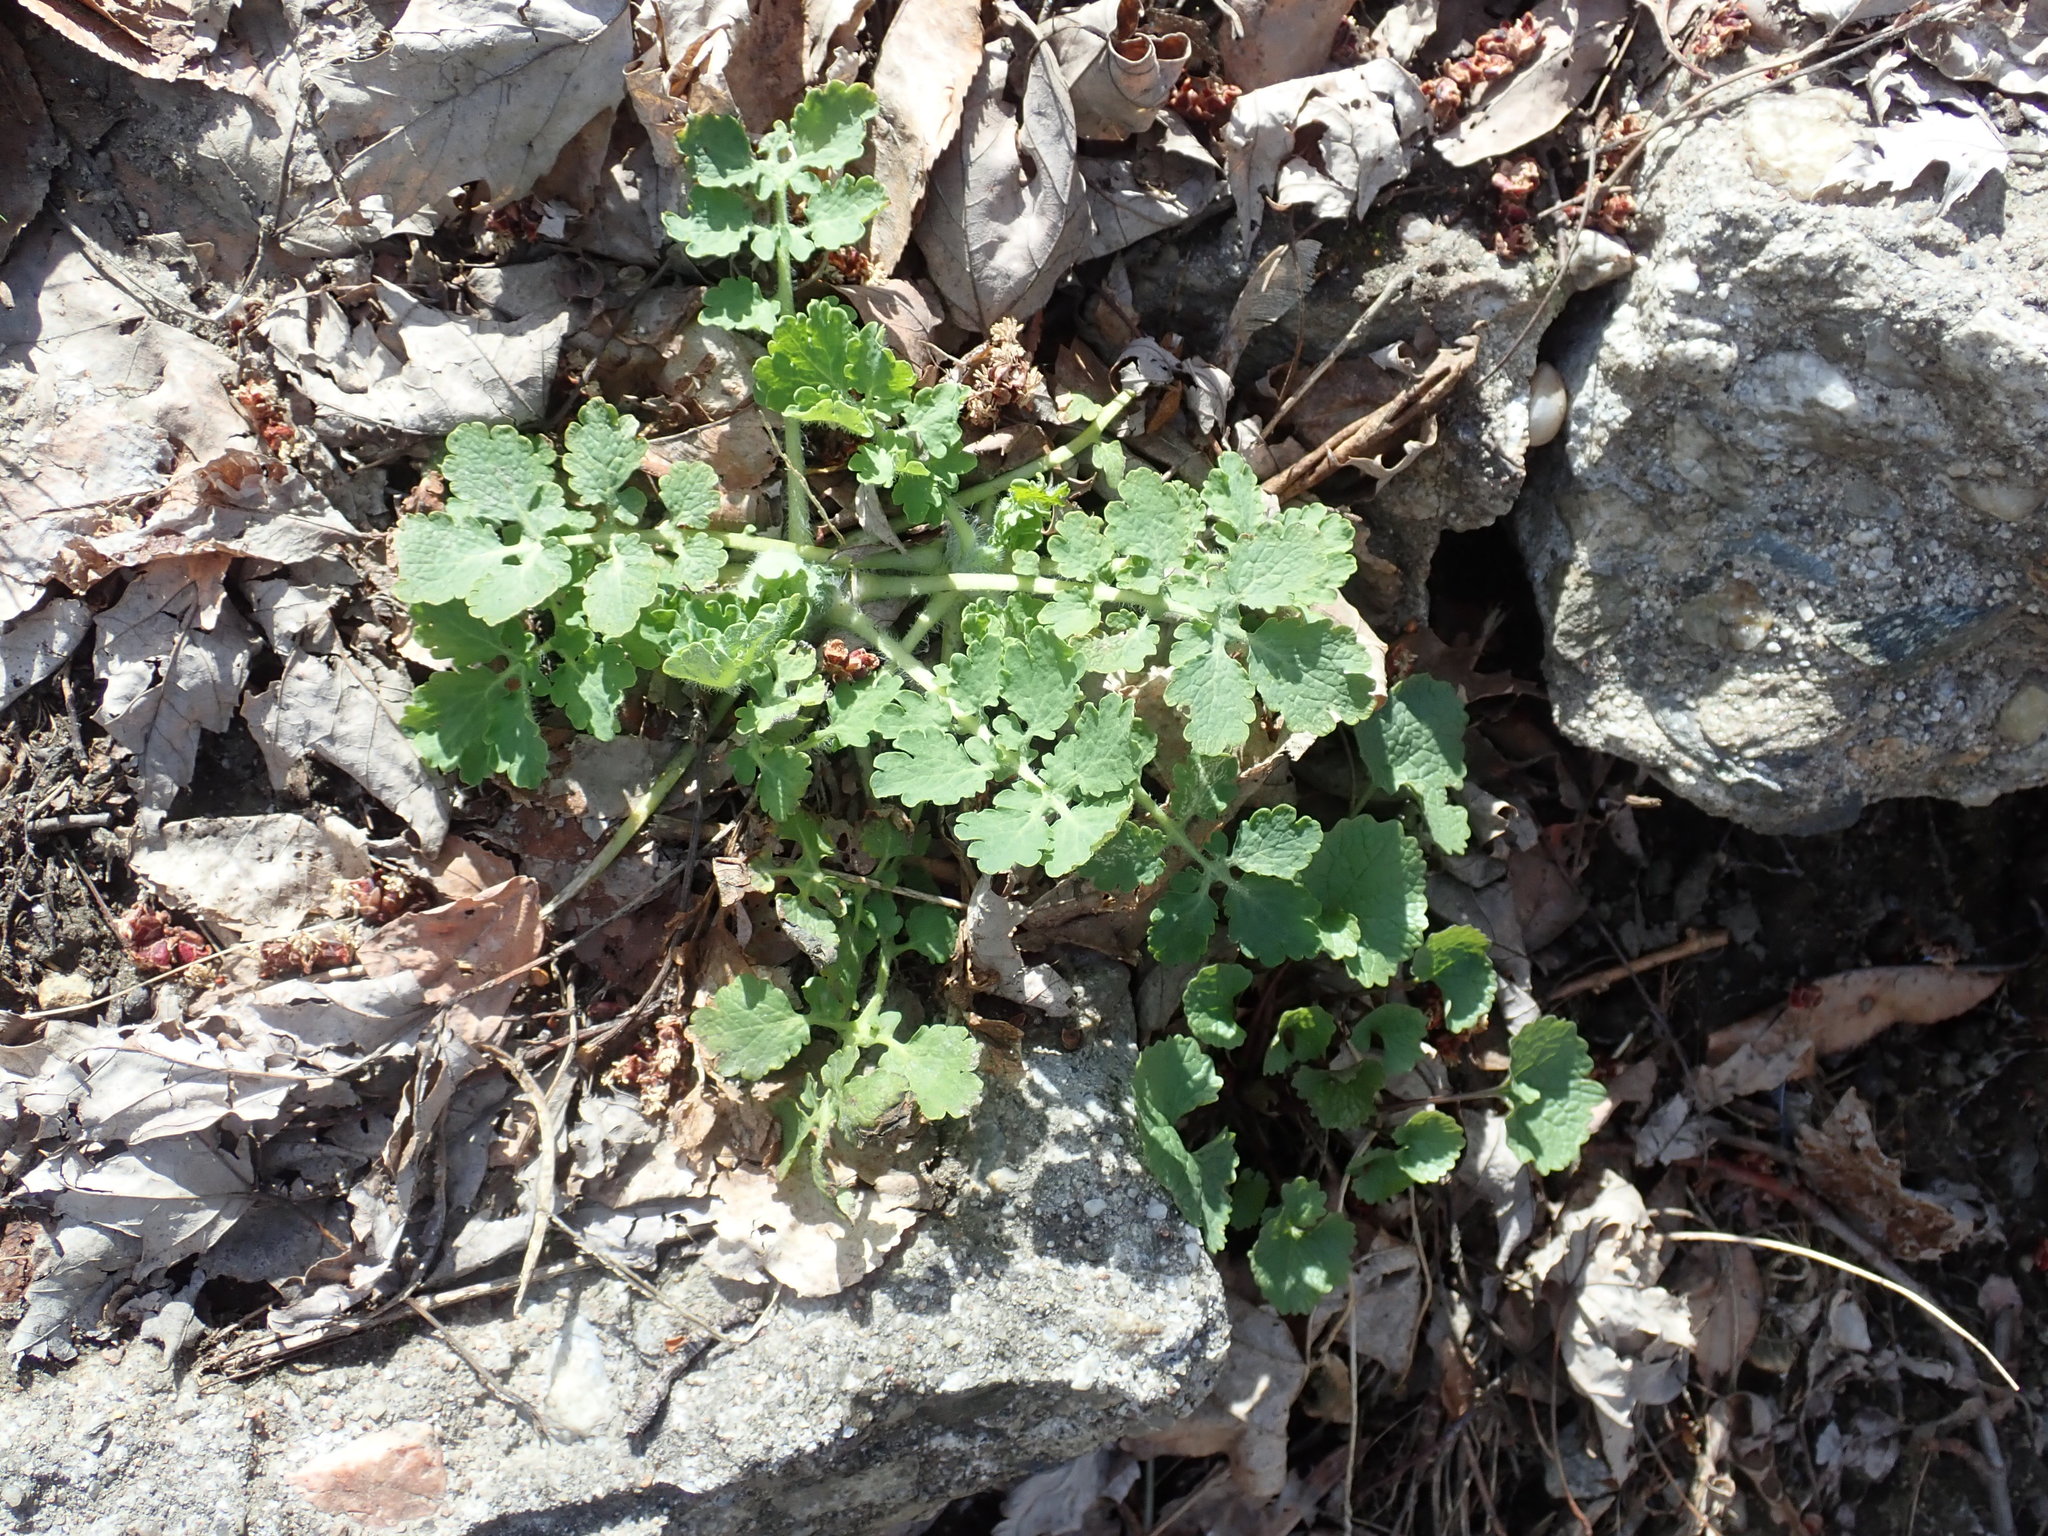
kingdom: Plantae
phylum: Tracheophyta
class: Magnoliopsida
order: Ranunculales
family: Papaveraceae
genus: Chelidonium
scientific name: Chelidonium majus
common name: Greater celandine
